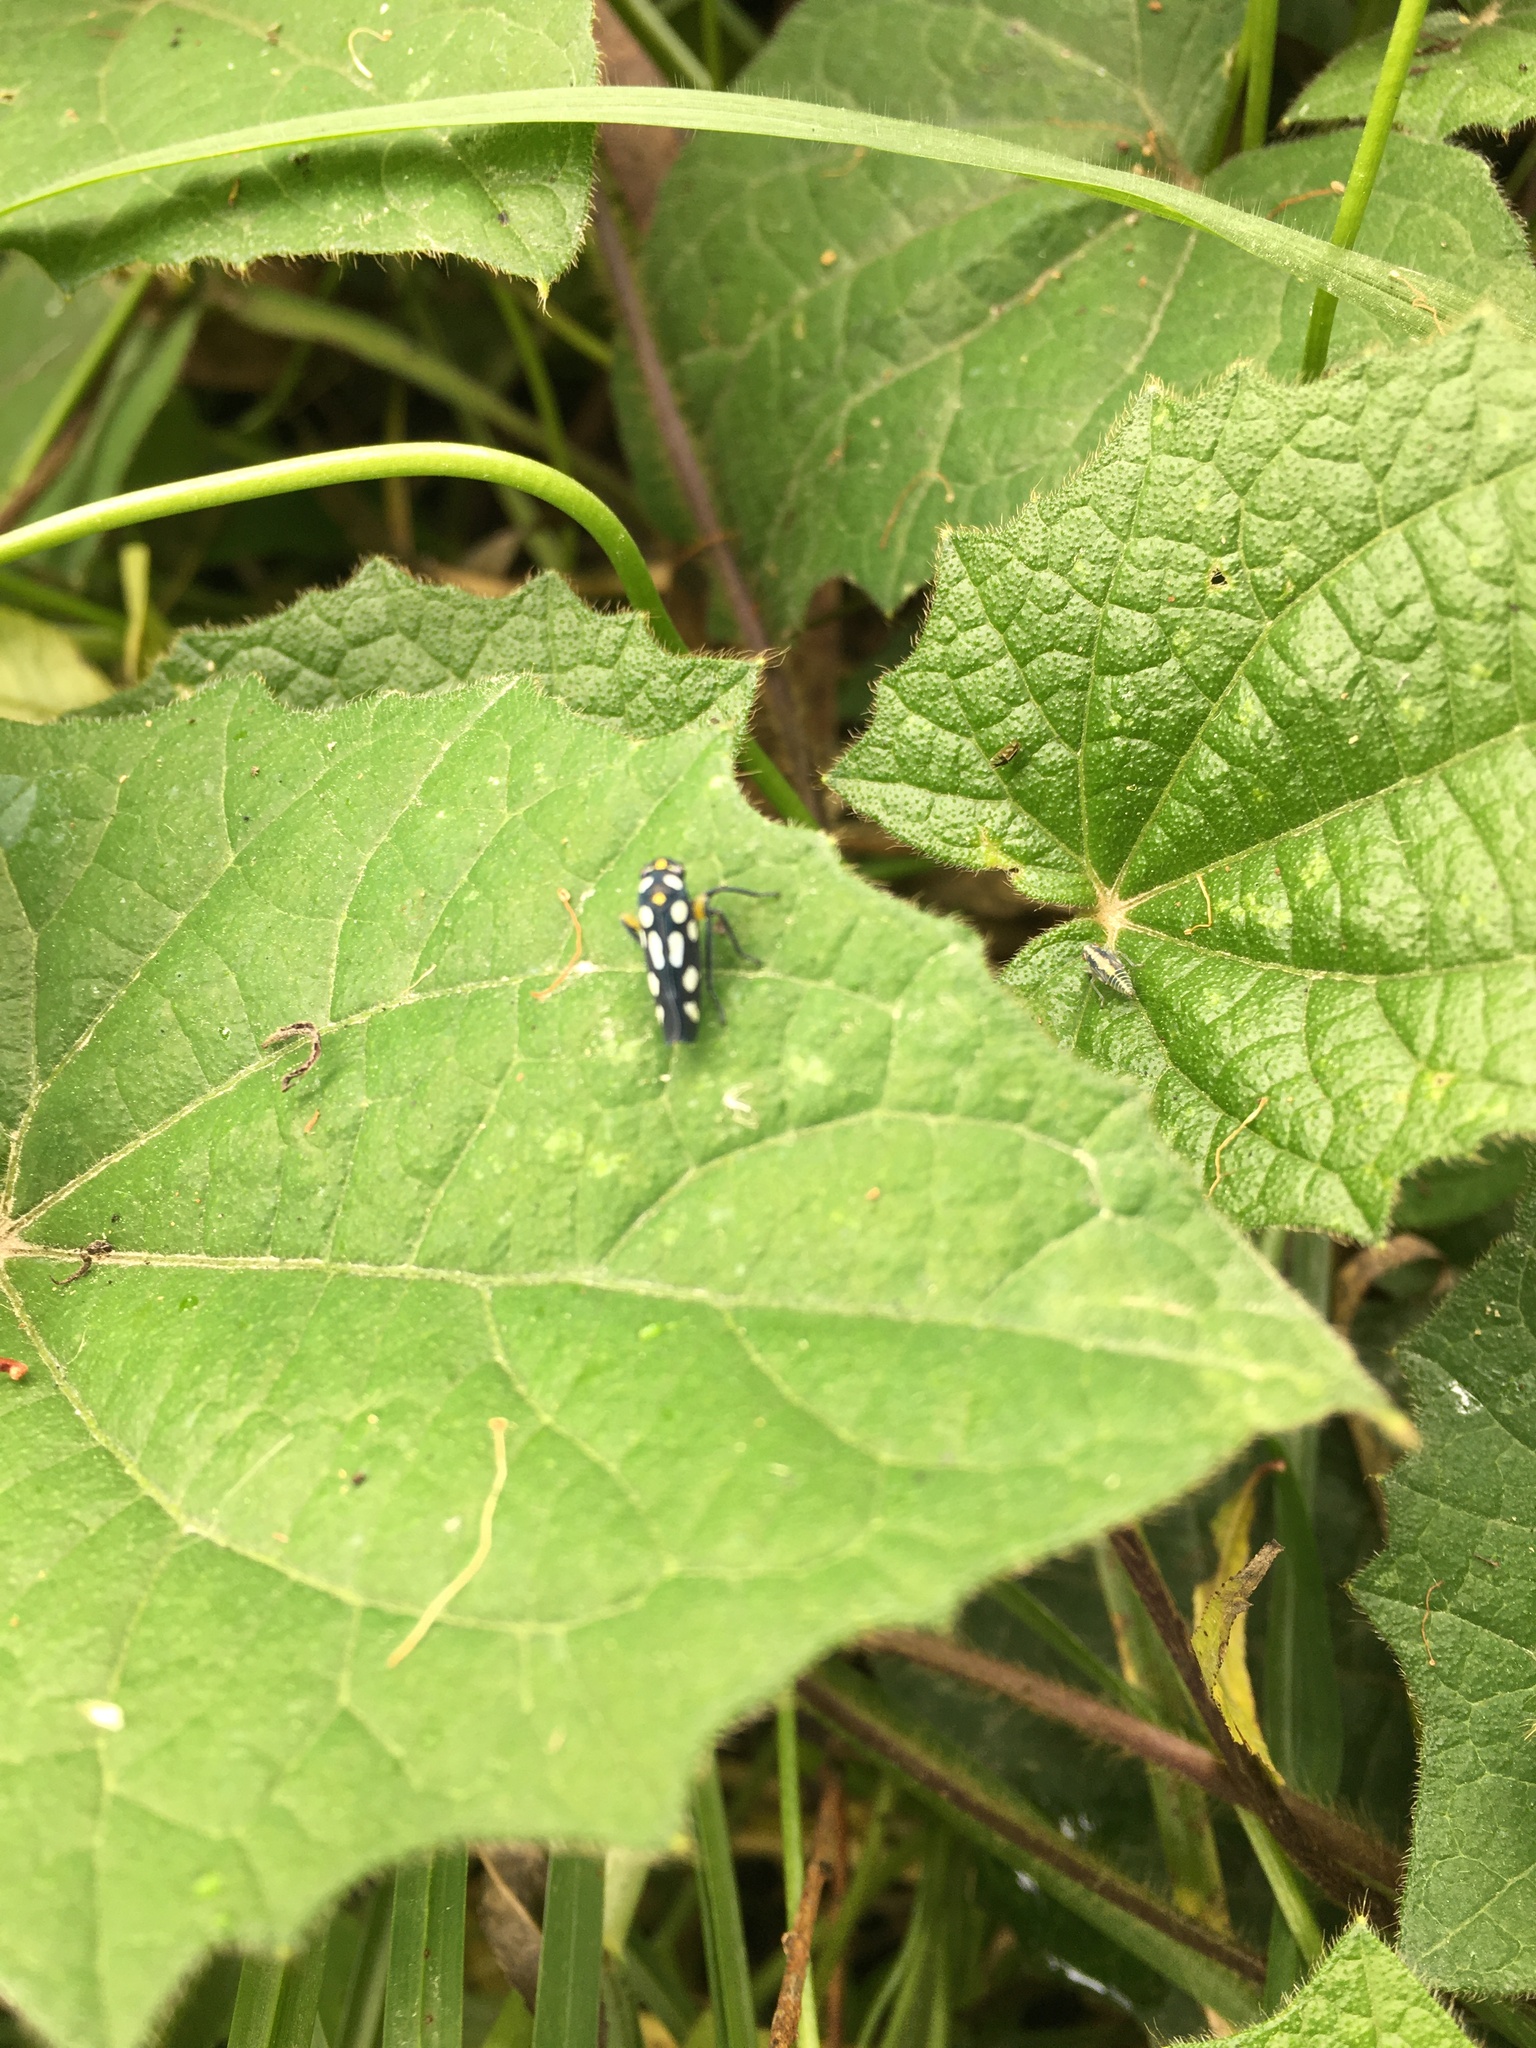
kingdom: Animalia
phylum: Arthropoda
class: Insecta
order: Hemiptera
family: Cicadellidae
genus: Stehlikiana
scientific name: Stehlikiana crassa
